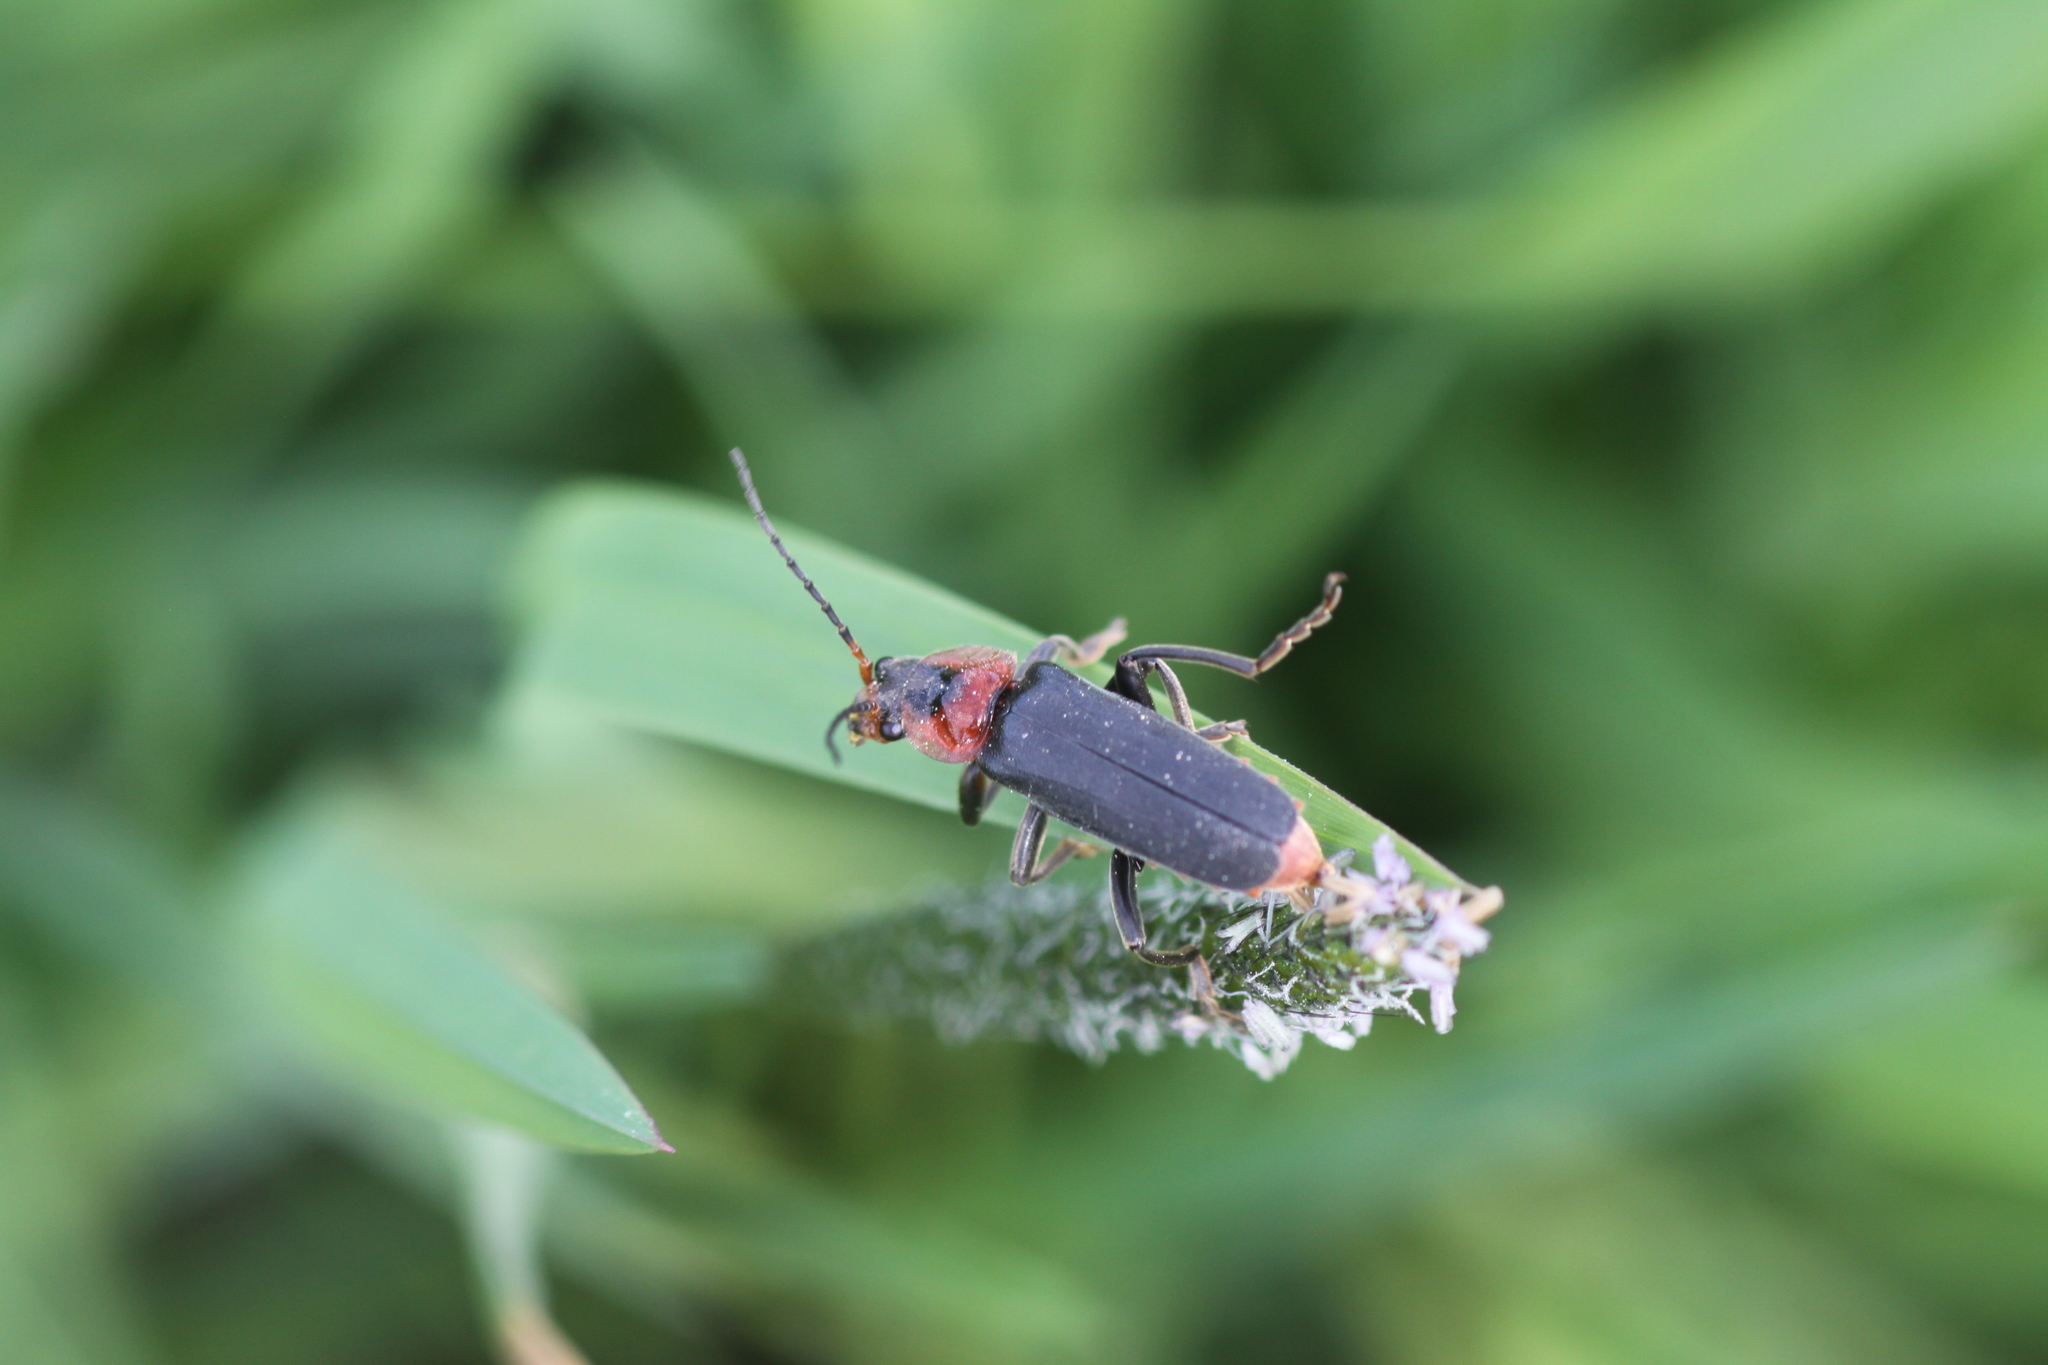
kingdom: Animalia
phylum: Arthropoda
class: Insecta
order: Coleoptera
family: Cantharidae
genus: Cantharis
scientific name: Cantharis fusca
